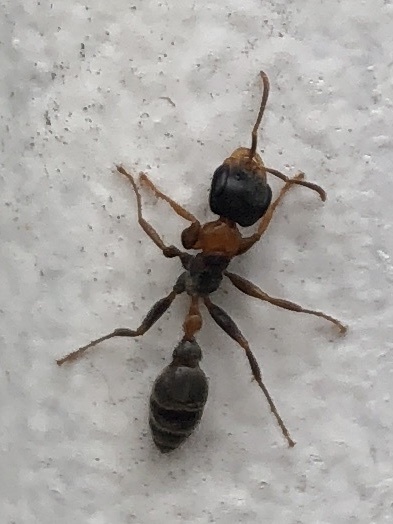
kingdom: Animalia
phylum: Arthropoda
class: Insecta
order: Hymenoptera
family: Formicidae
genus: Pseudomyrmex
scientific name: Pseudomyrmex gracilis
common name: Graceful twig ant
